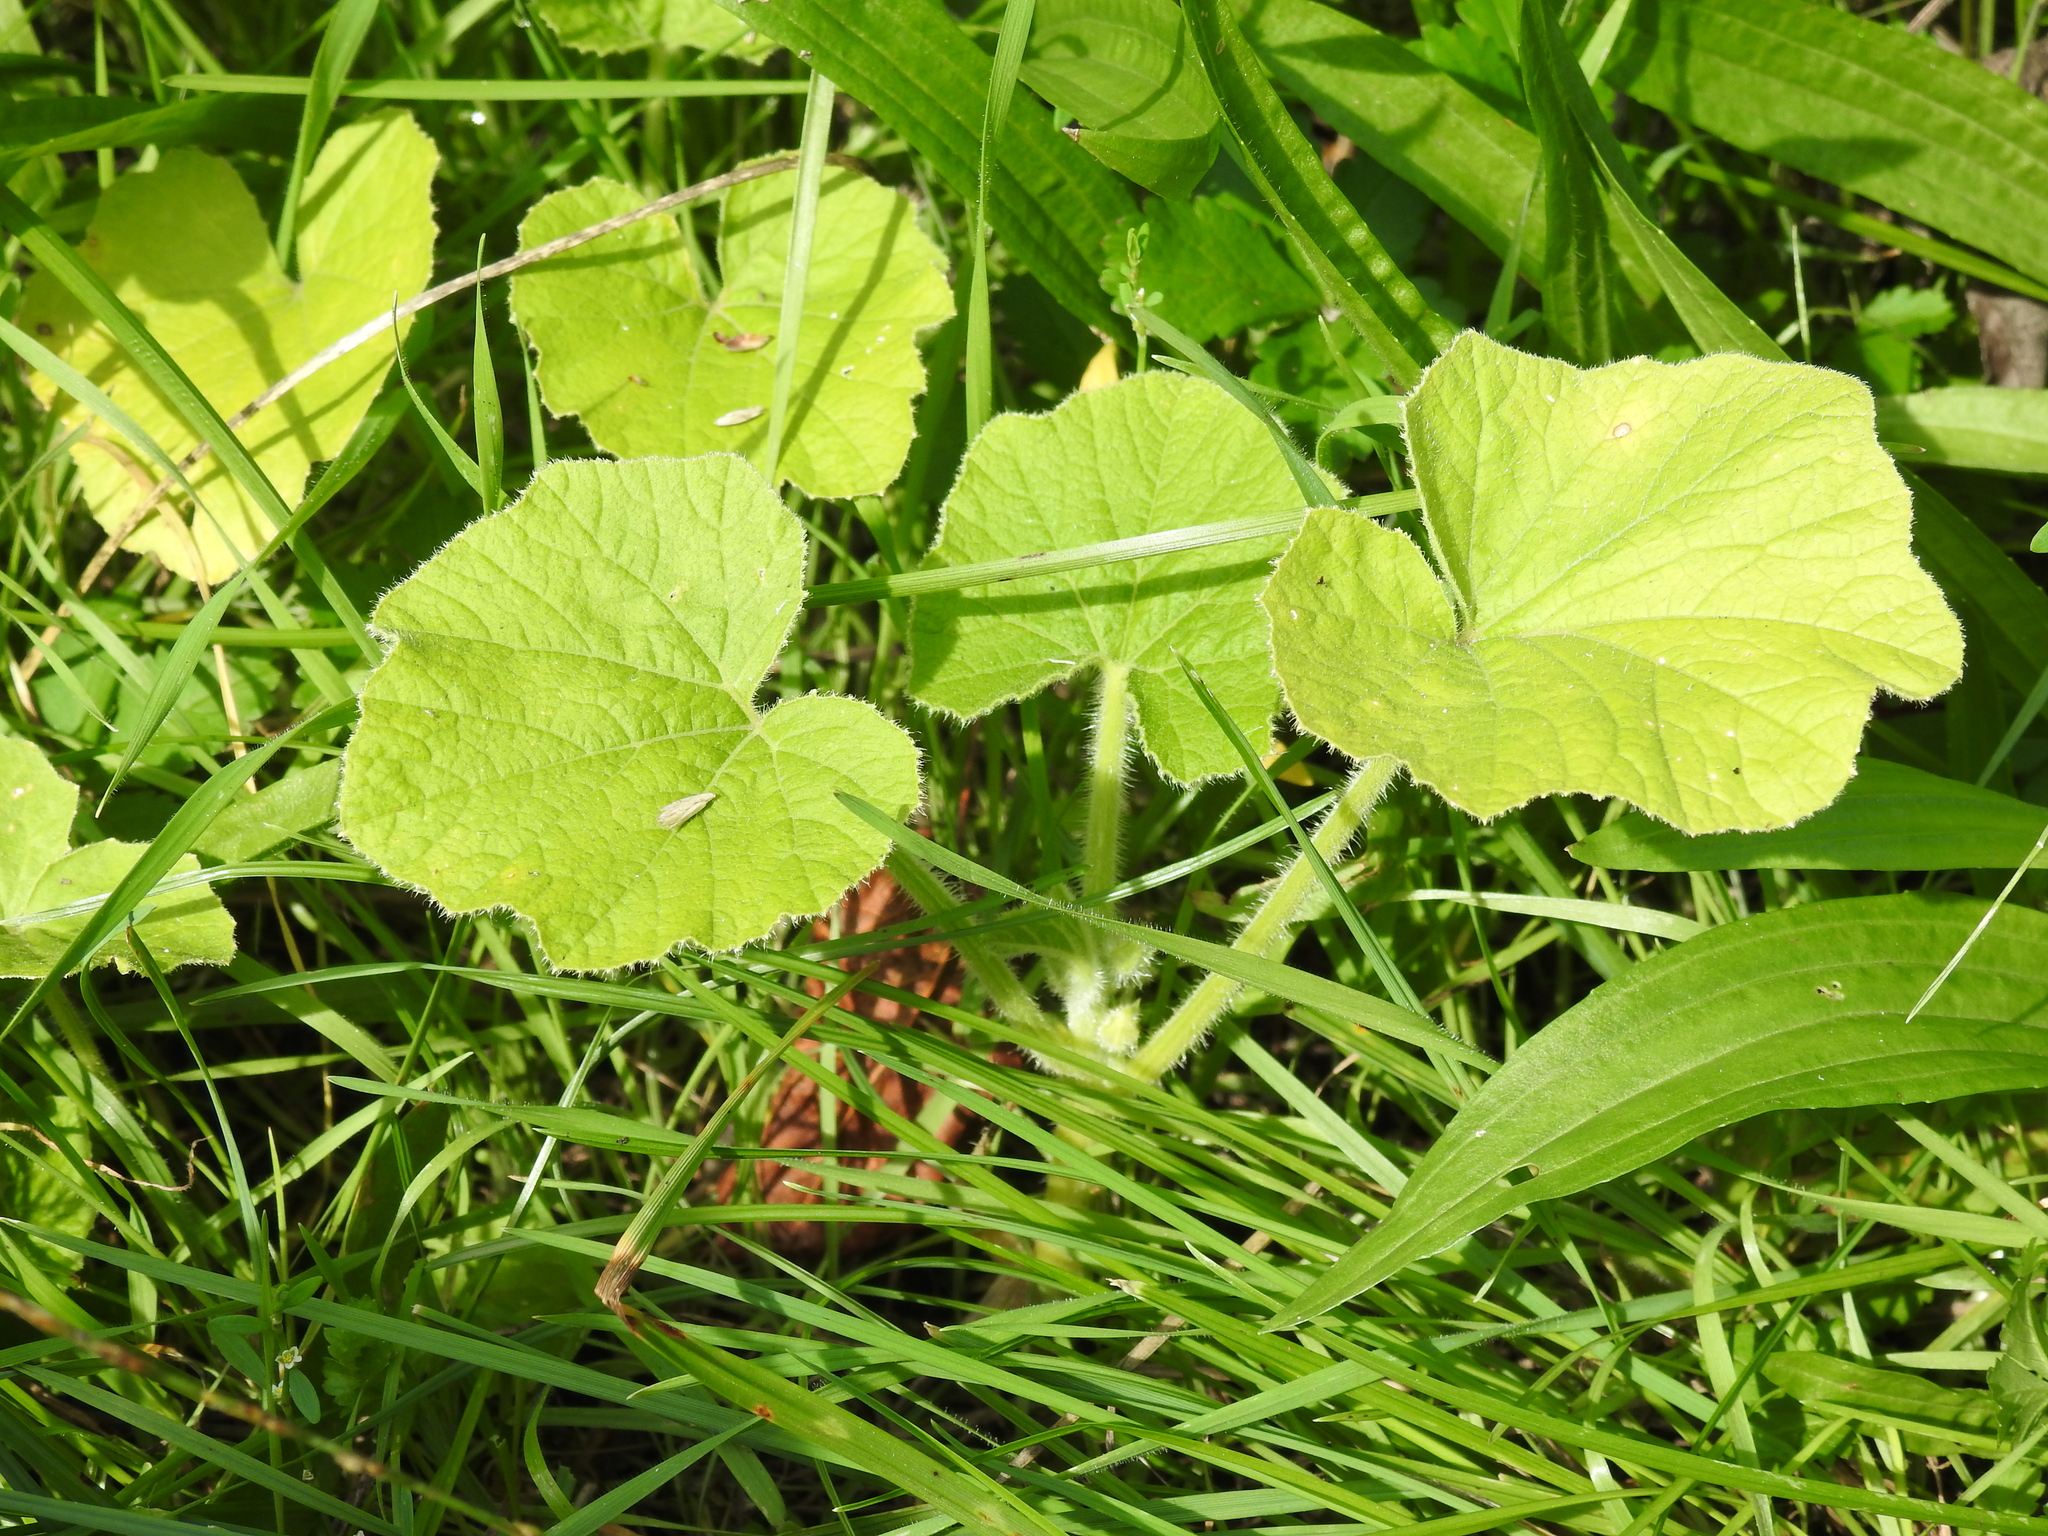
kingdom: Plantae
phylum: Tracheophyta
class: Magnoliopsida
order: Cucurbitales
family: Cucurbitaceae
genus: Cucurbita
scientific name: Cucurbita pepo
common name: Marrow
